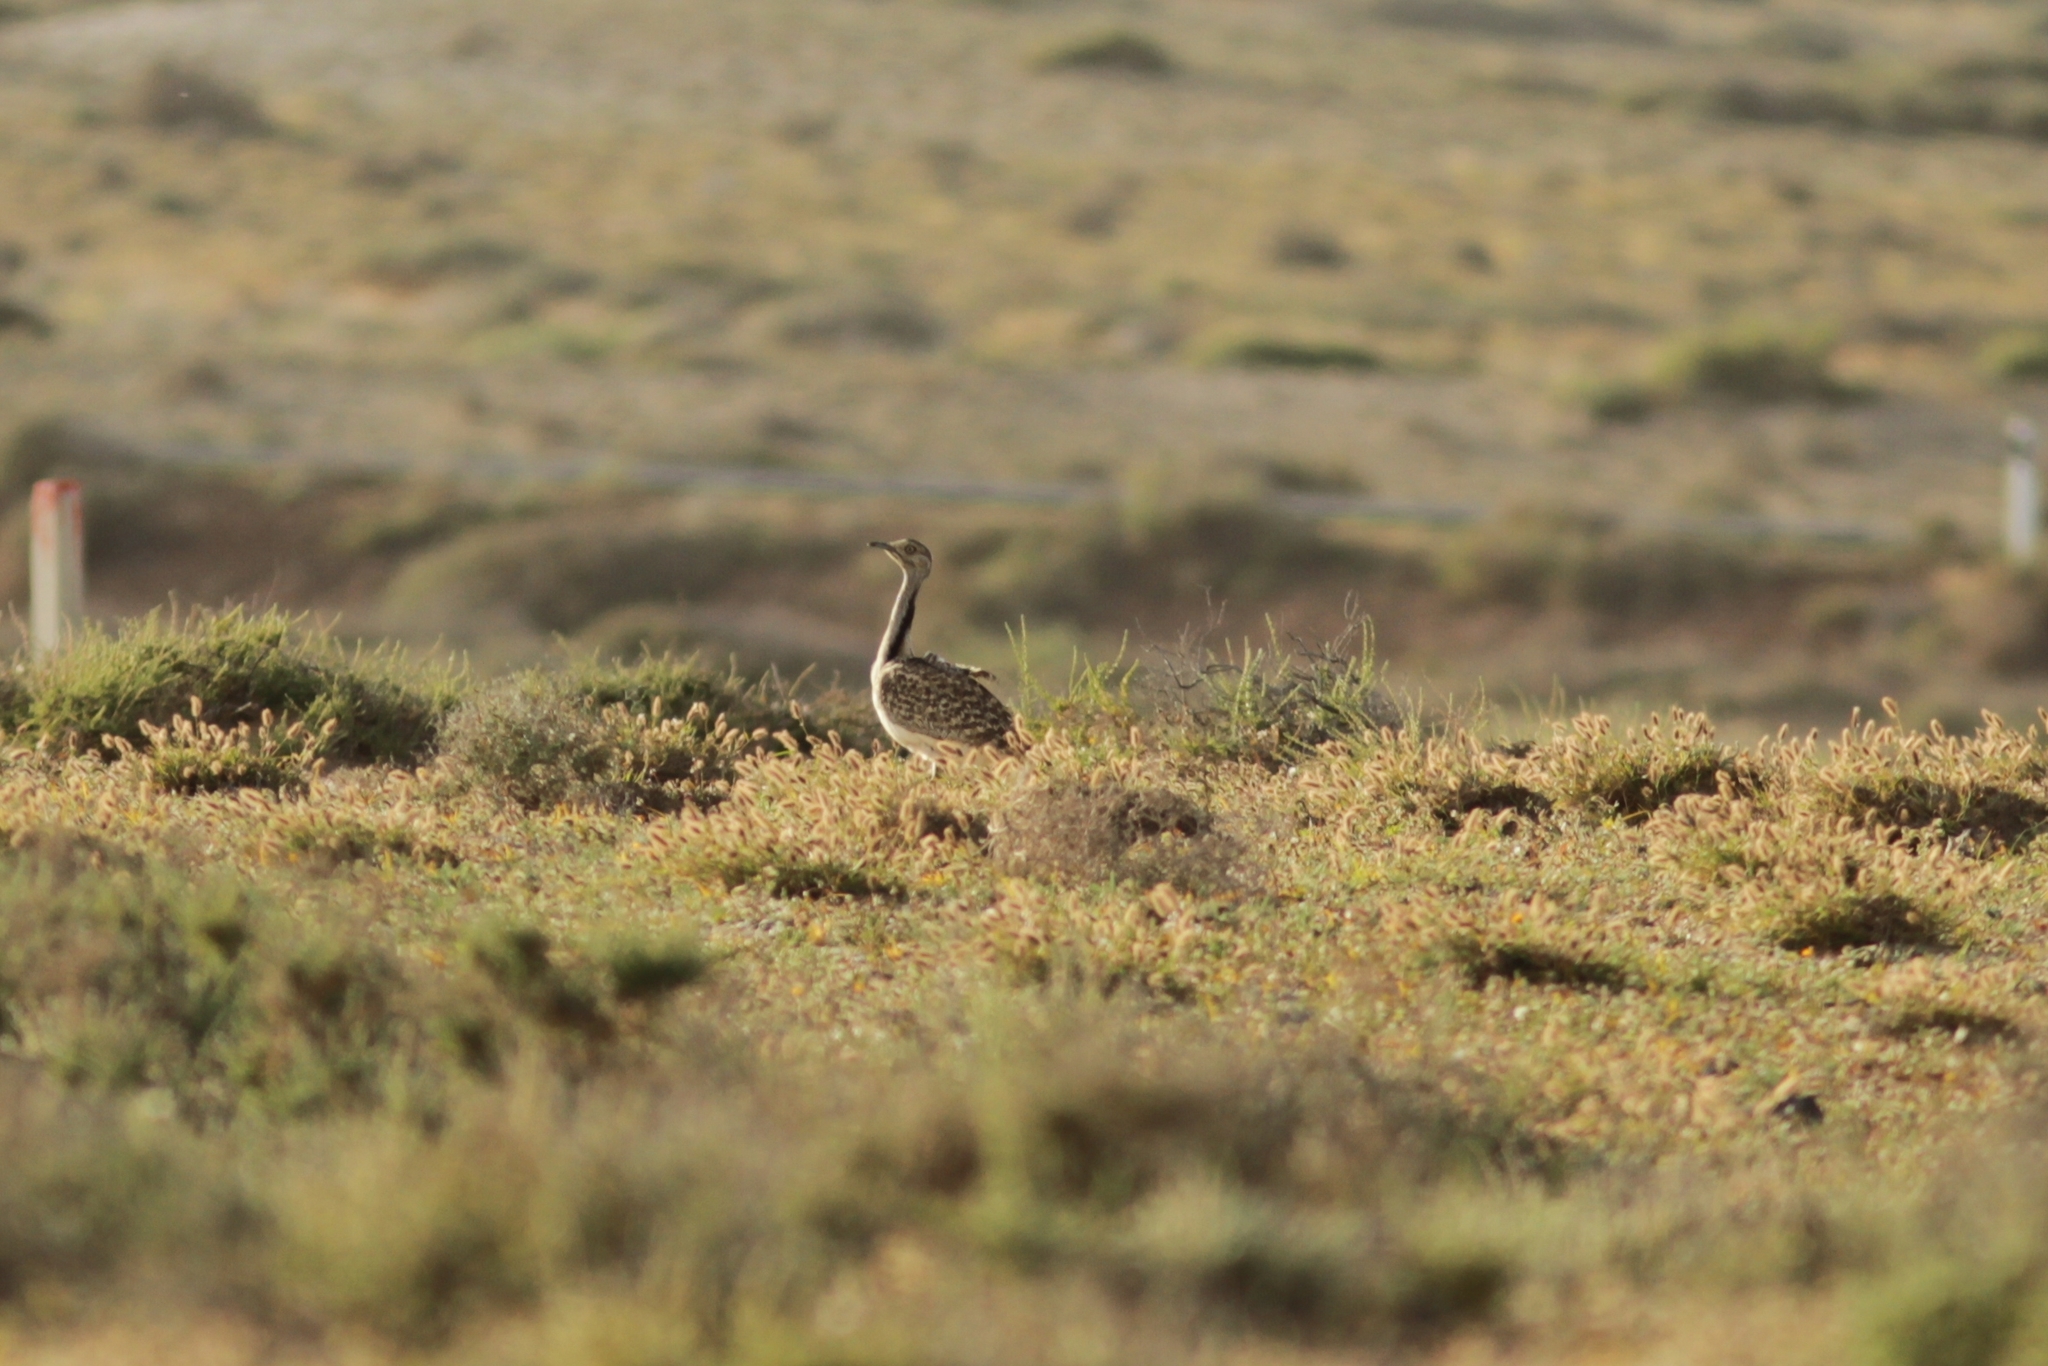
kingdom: Animalia
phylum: Chordata
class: Aves
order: Otidiformes
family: Otididae
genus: Chlamydotis
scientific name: Chlamydotis undulata
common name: Houbara bustard
